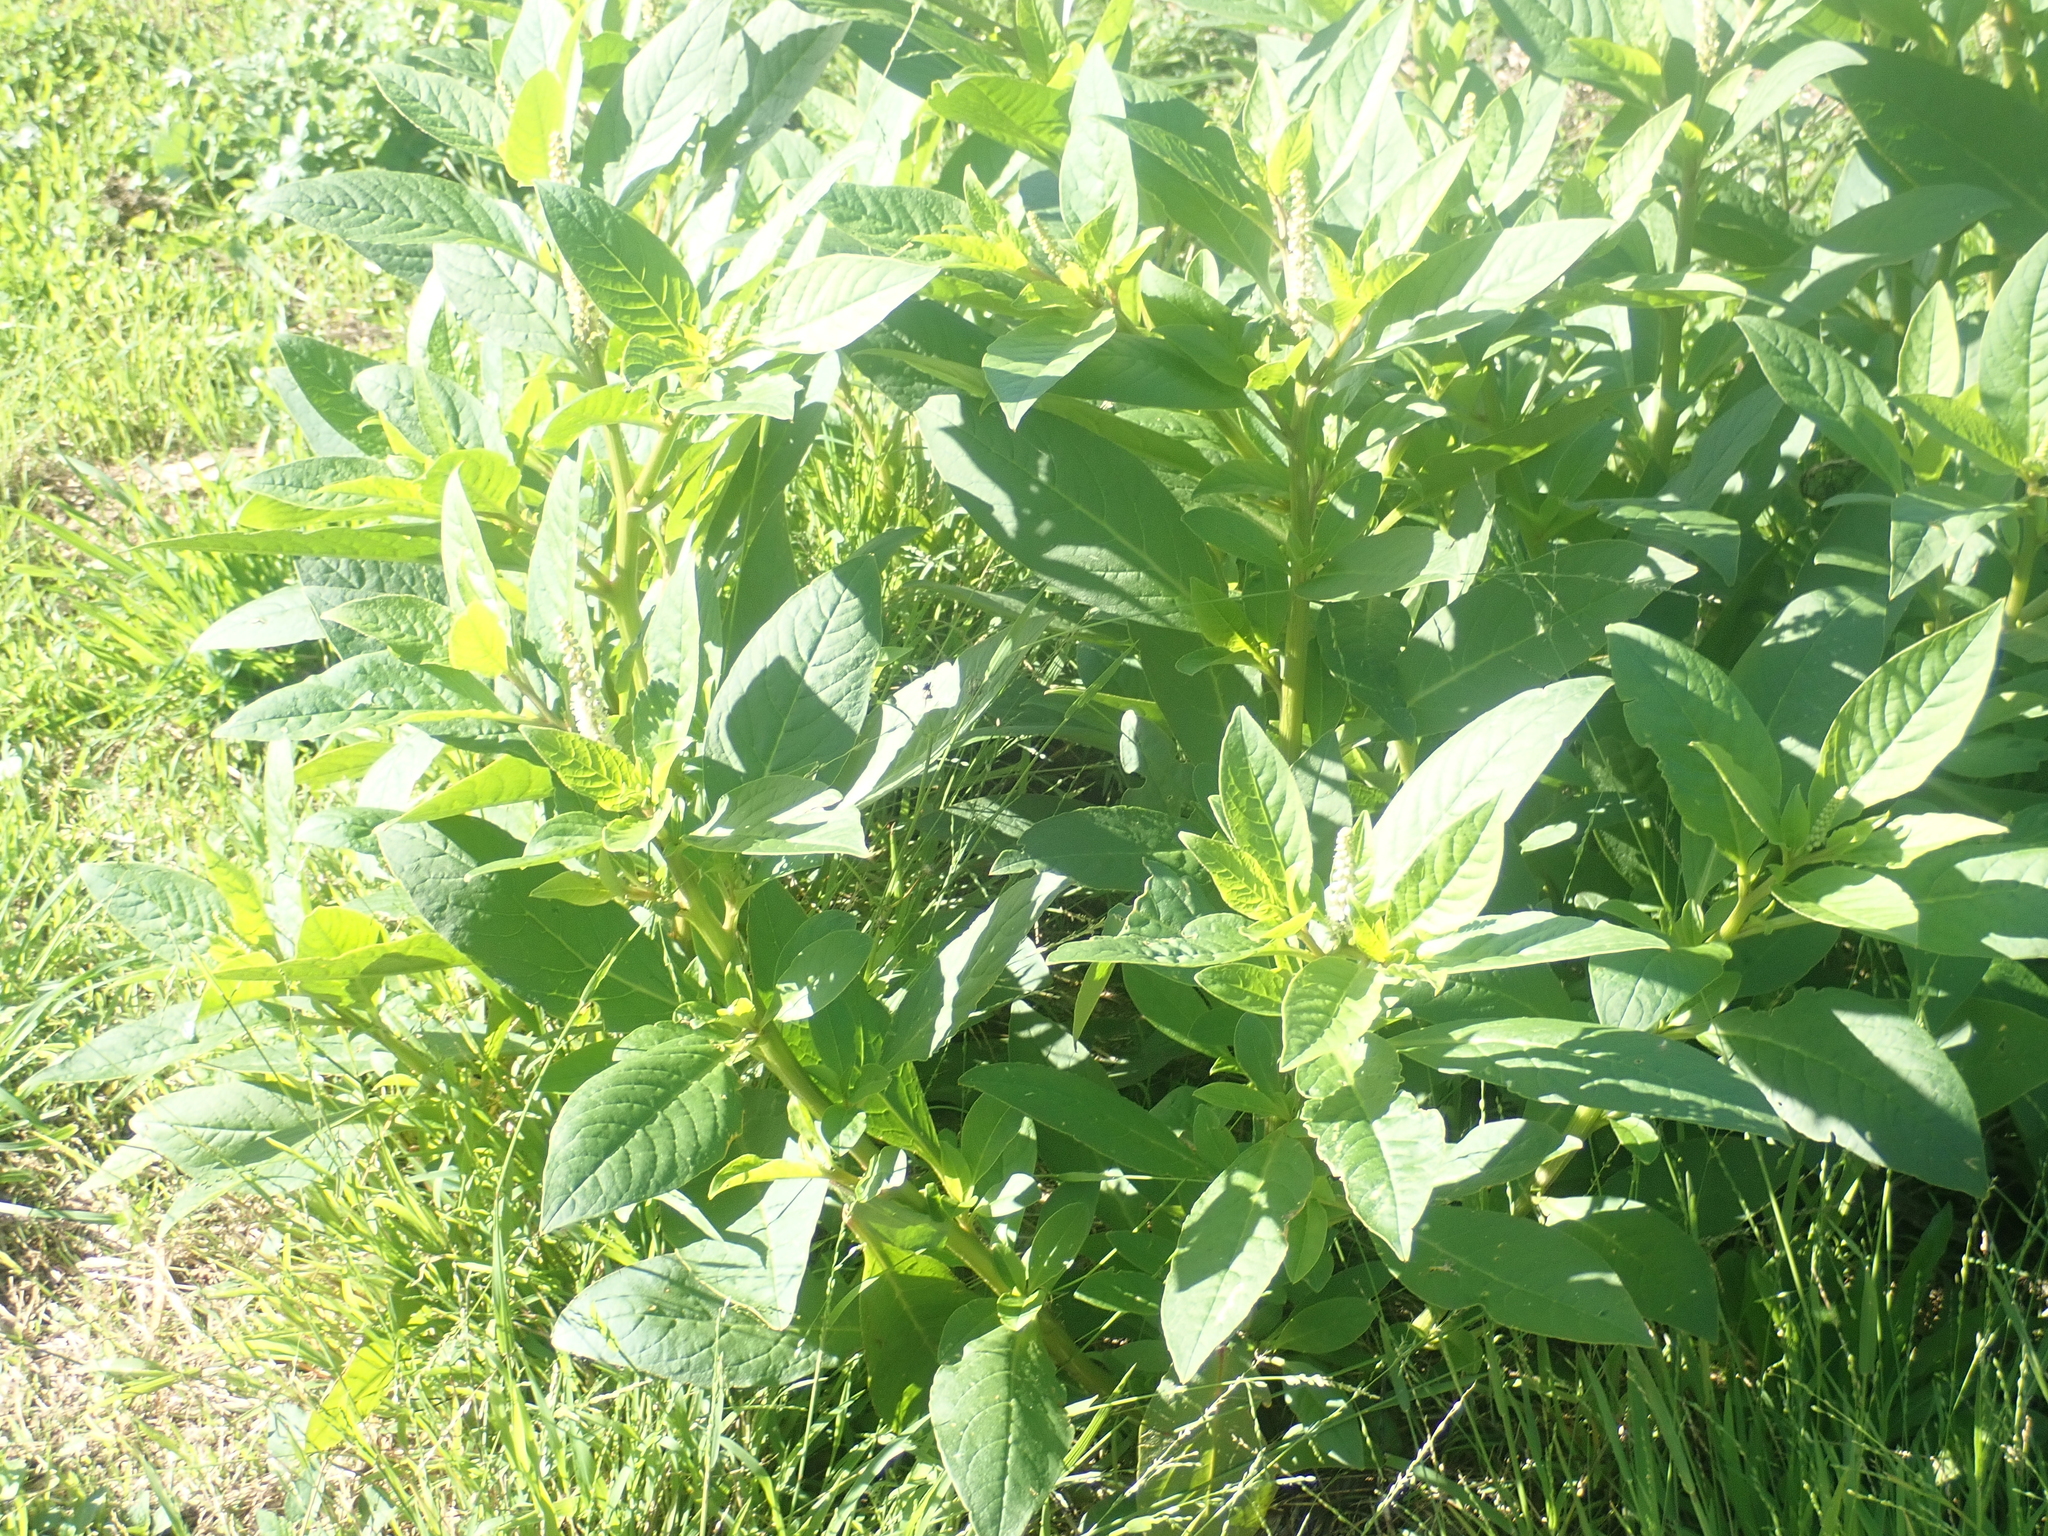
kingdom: Plantae
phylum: Tracheophyta
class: Magnoliopsida
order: Caryophyllales
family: Phytolaccaceae
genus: Phytolacca
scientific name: Phytolacca icosandra
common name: Button pokeweed
